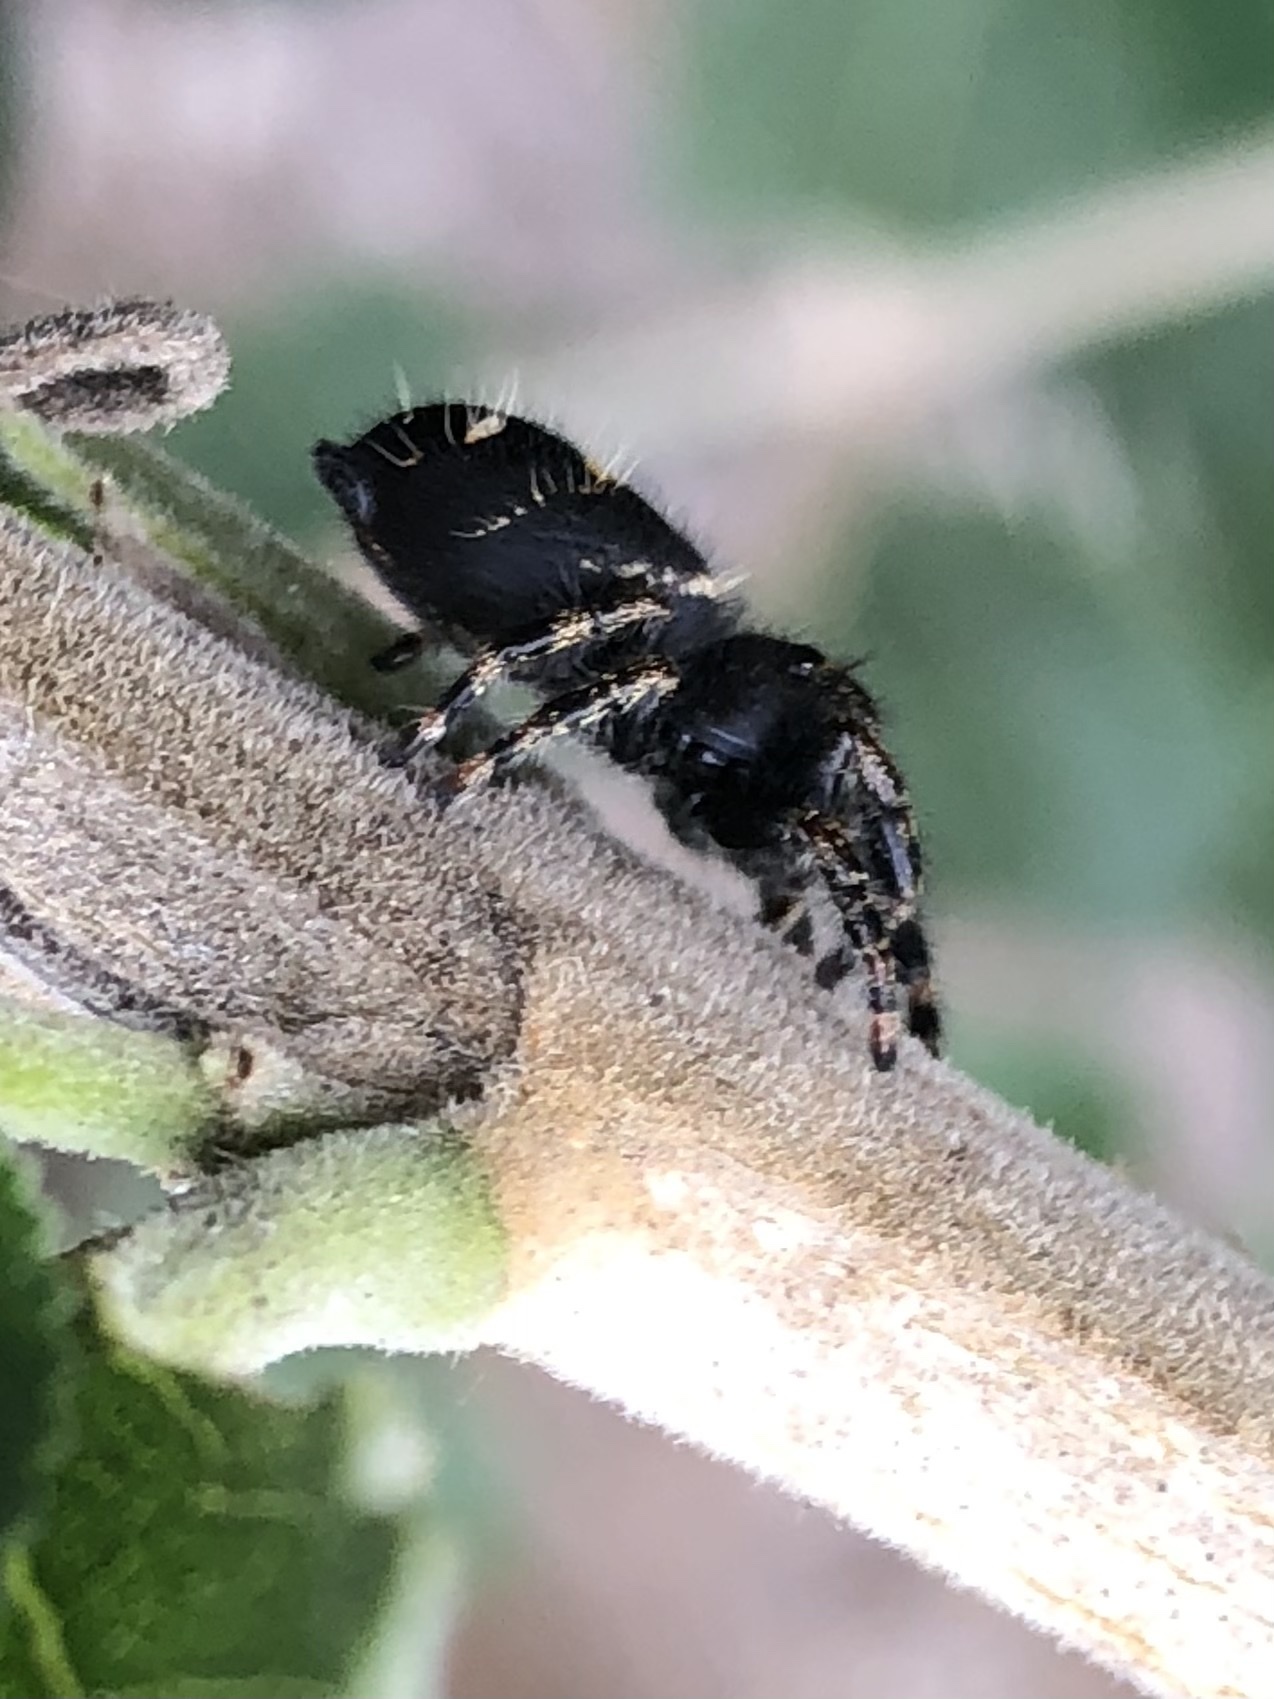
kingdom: Animalia
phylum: Arthropoda
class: Arachnida
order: Araneae
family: Salticidae
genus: Phidippus
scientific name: Phidippus audax
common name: Bold jumper
